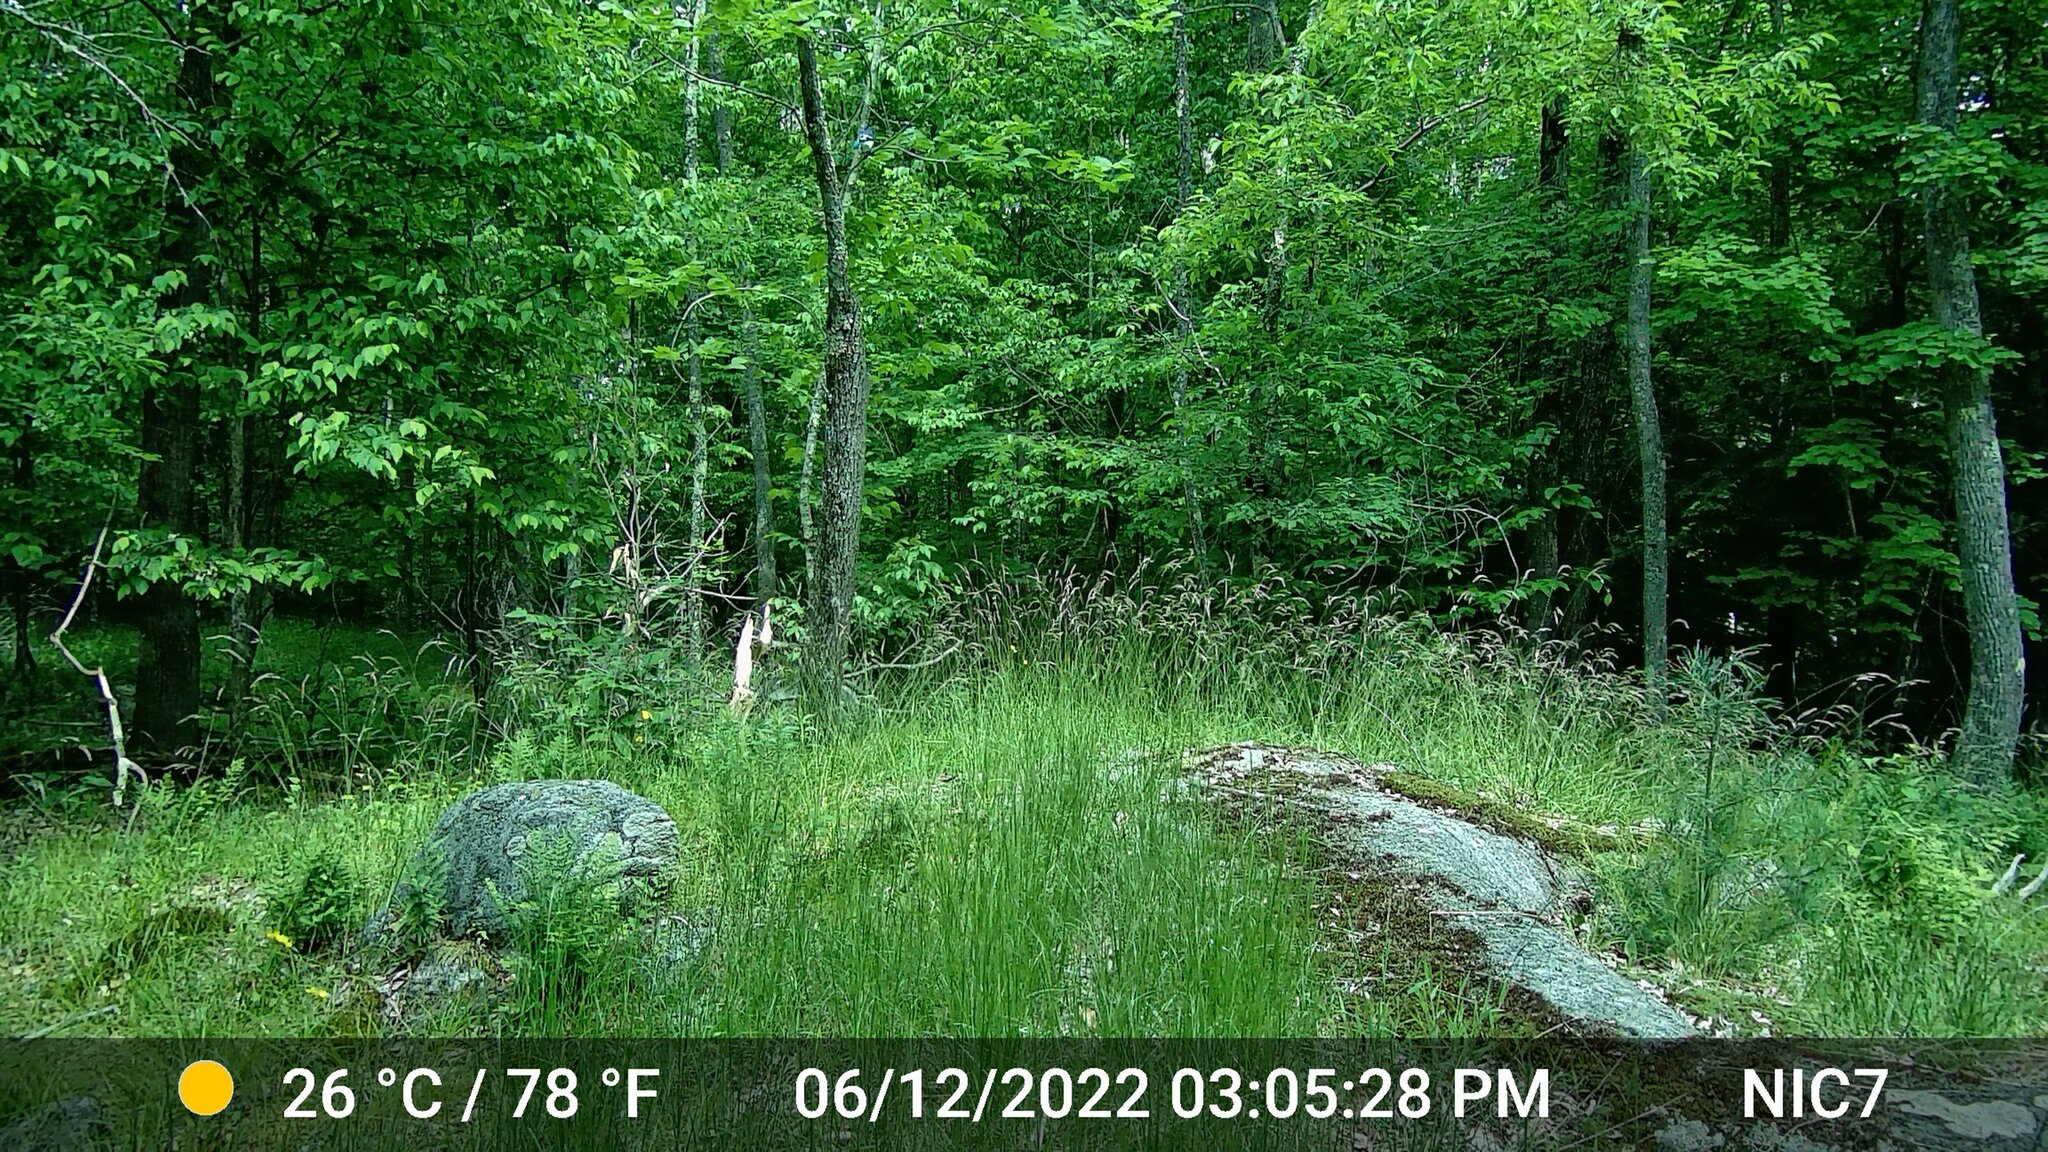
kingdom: Animalia
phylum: Chordata
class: Aves
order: Passeriformes
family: Corvidae
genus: Cyanocitta
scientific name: Cyanocitta cristata
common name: Blue jay
